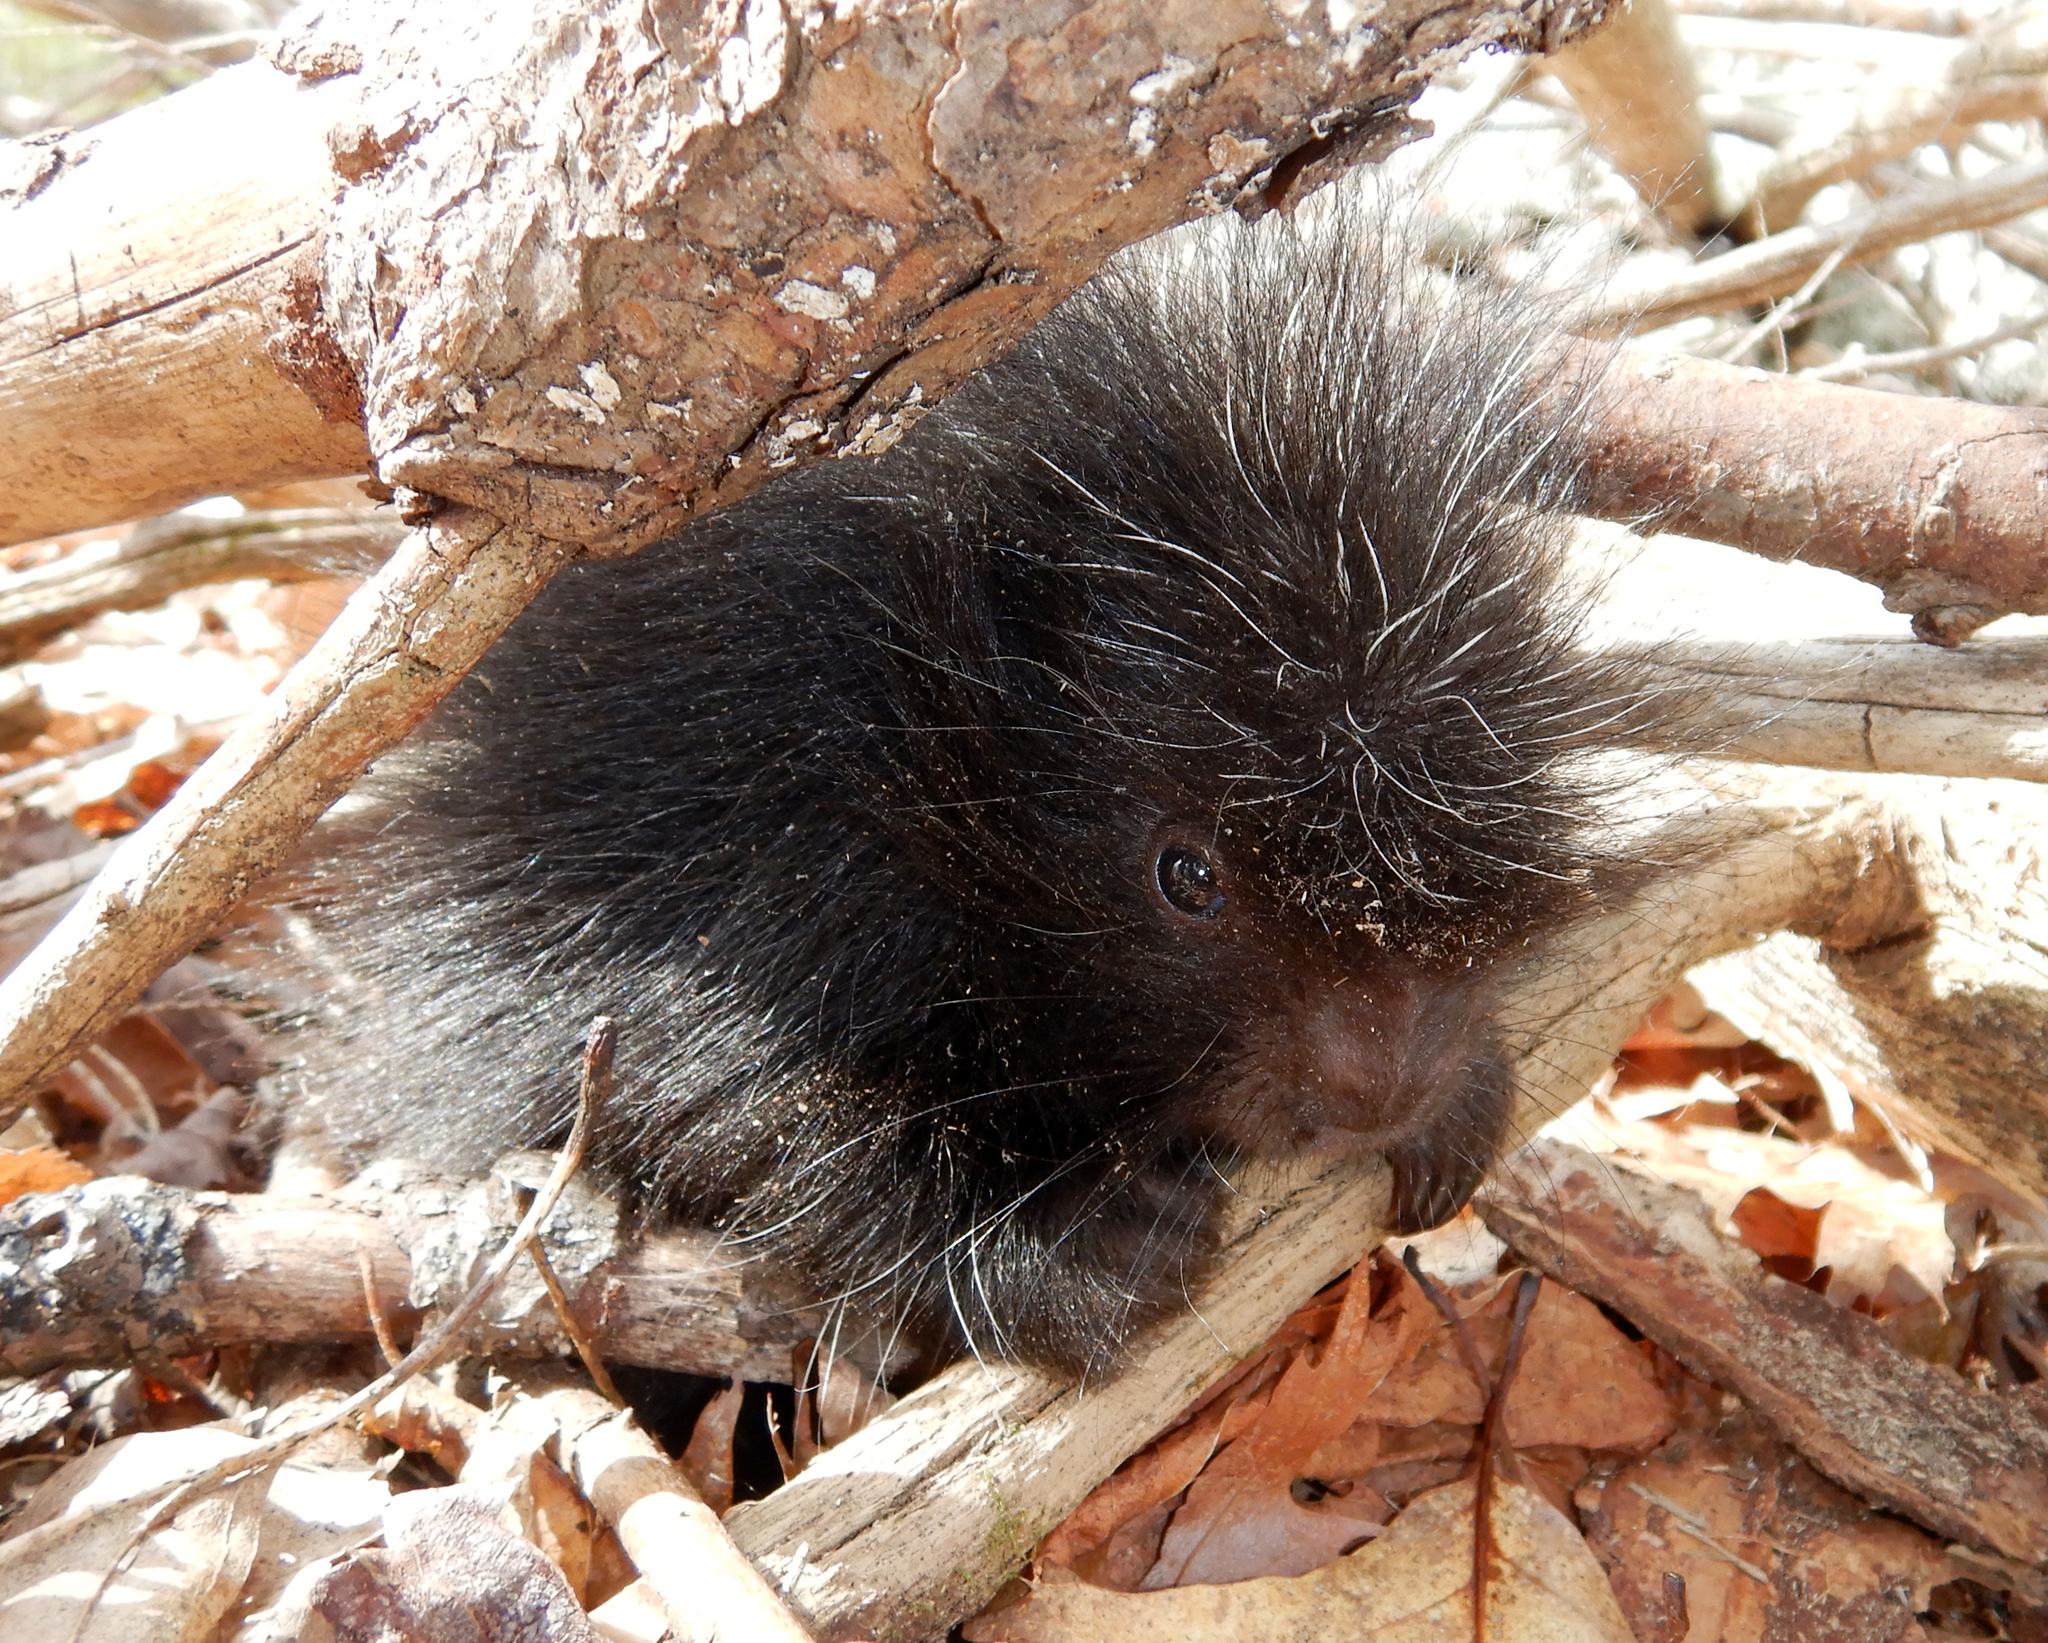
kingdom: Animalia
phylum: Chordata
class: Mammalia
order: Rodentia
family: Erethizontidae
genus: Erethizon
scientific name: Erethizon dorsatus
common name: North american porcupine
